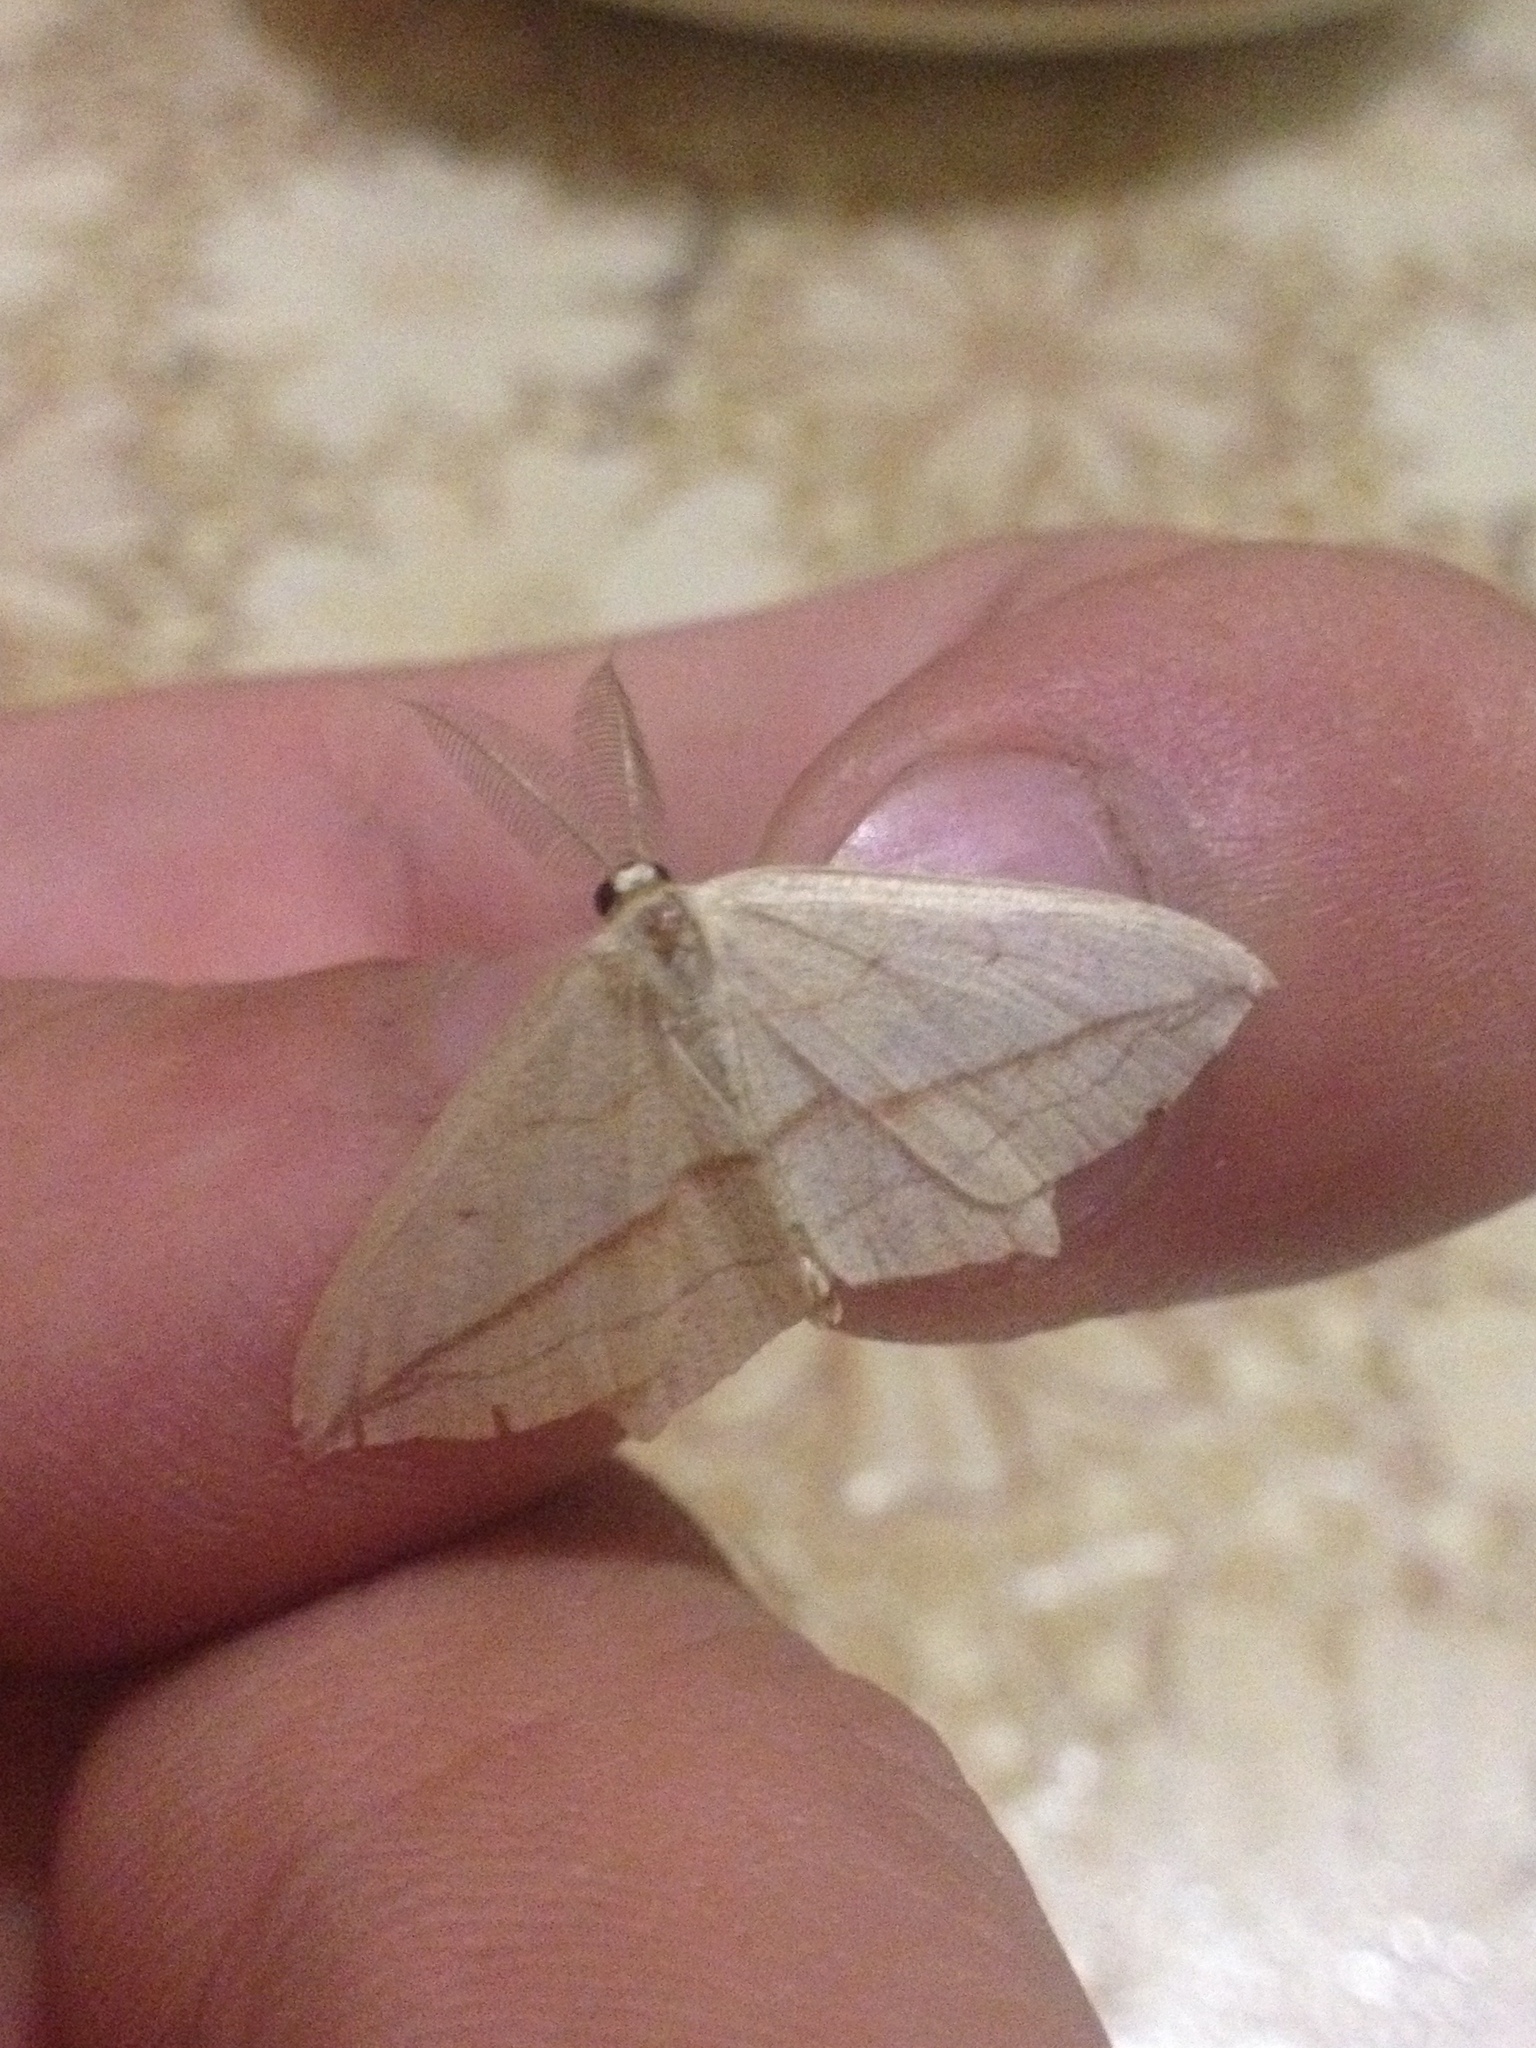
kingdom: Animalia
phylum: Arthropoda
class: Insecta
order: Lepidoptera
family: Geometridae
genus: Timandra
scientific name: Timandra comae
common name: Blood-vein
